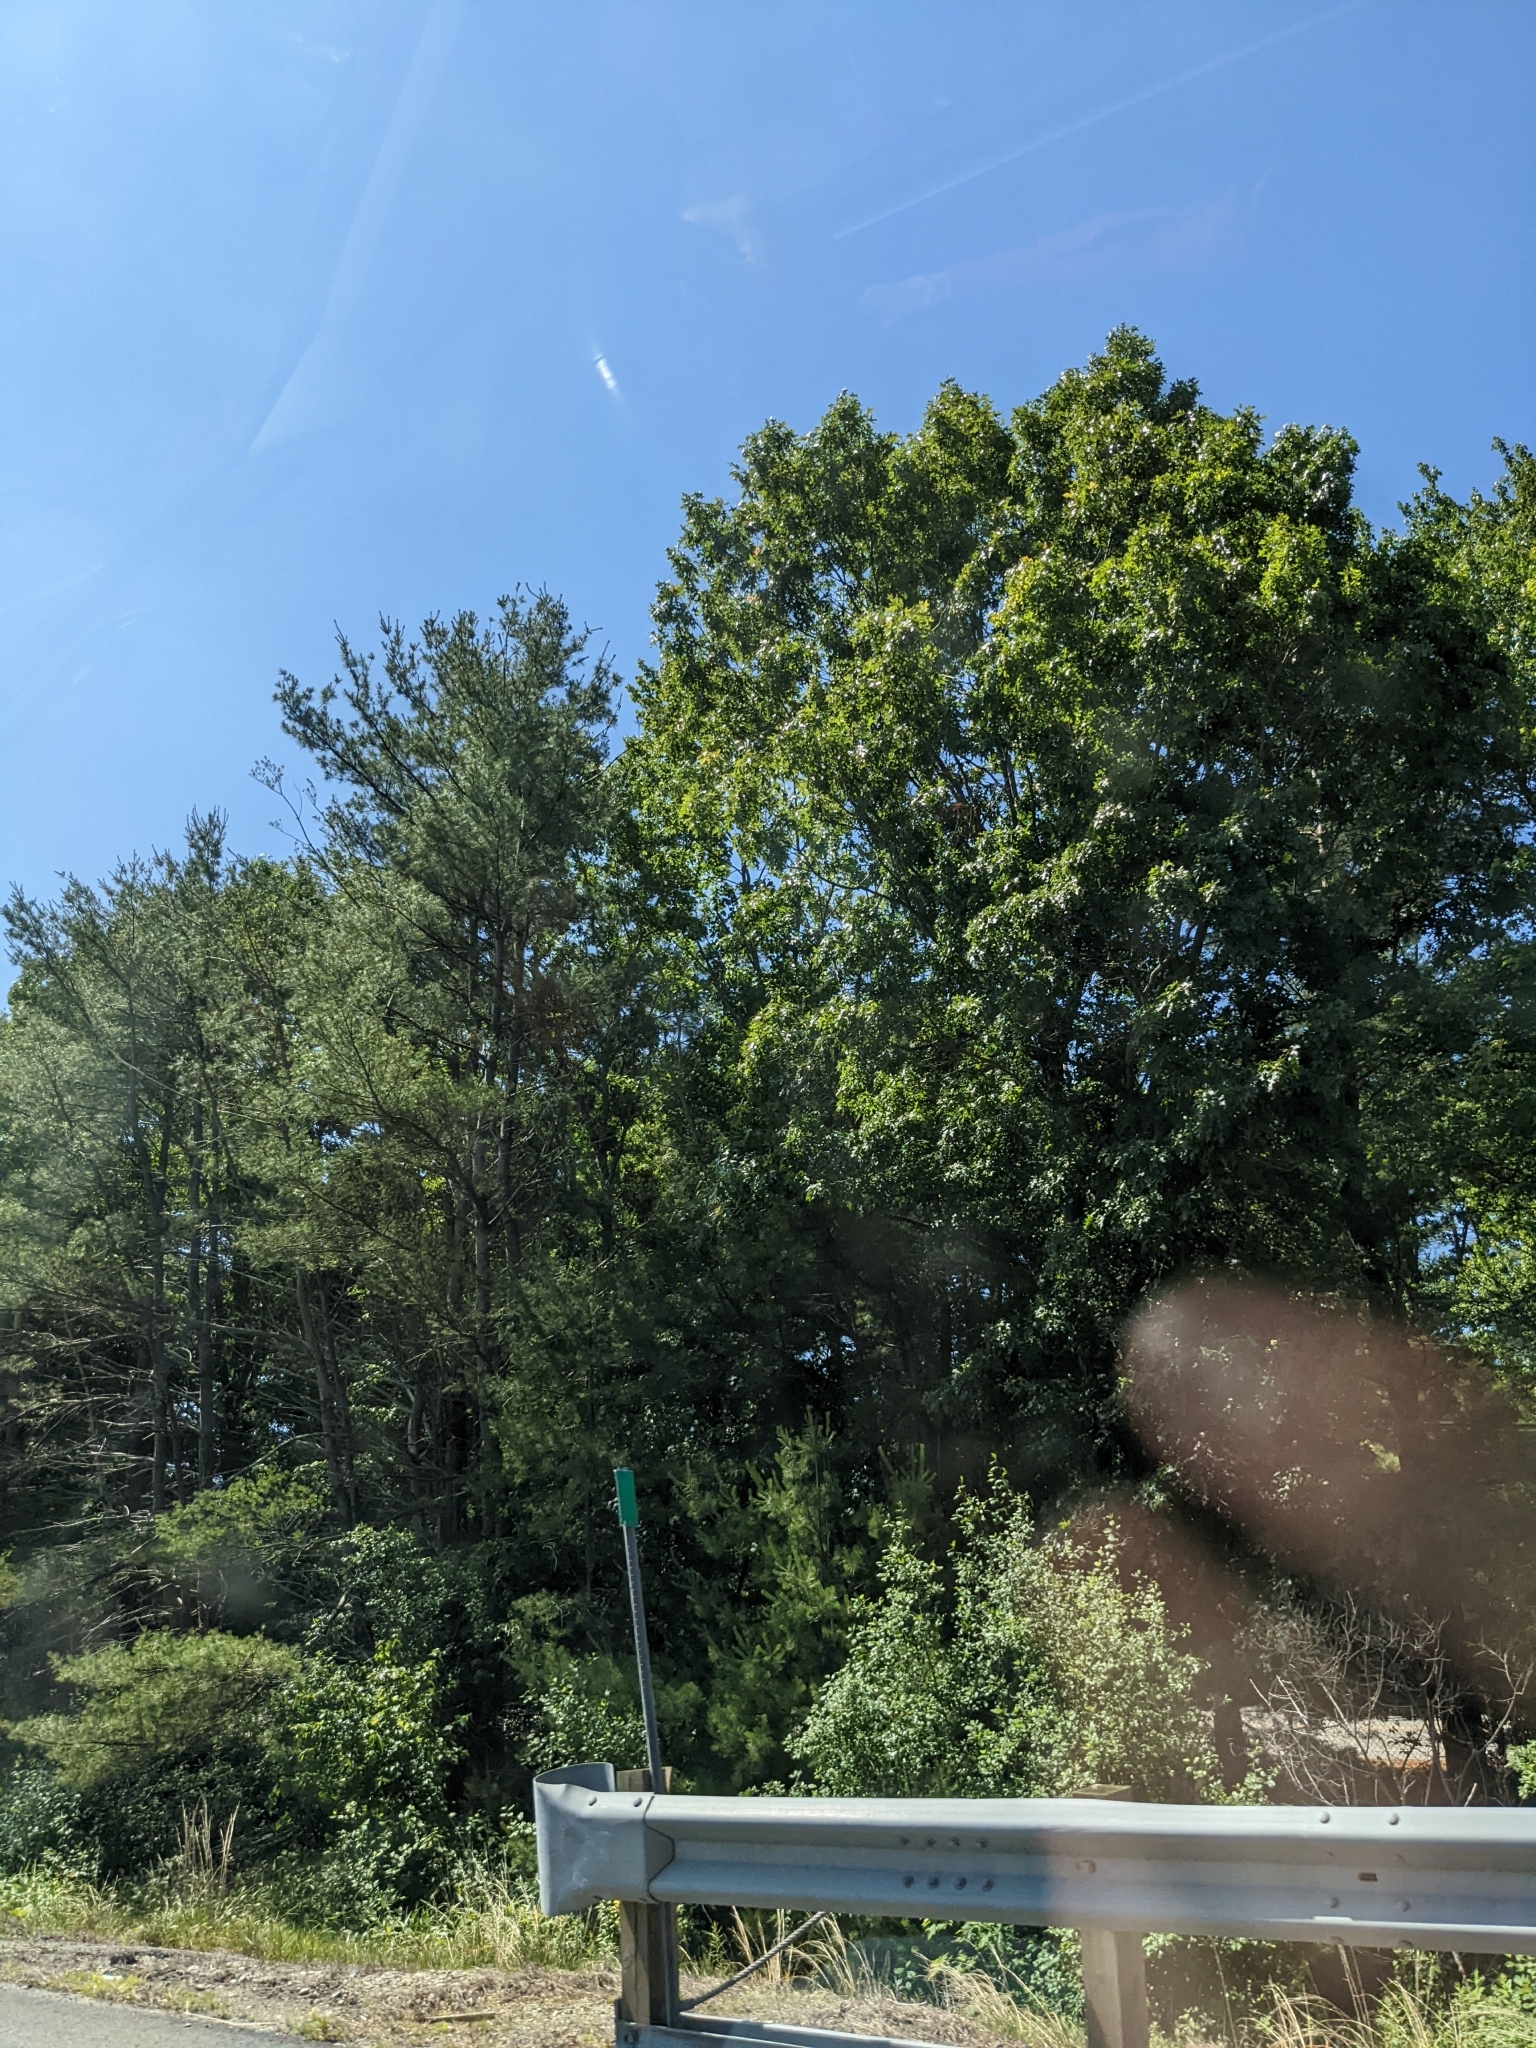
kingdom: Plantae
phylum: Tracheophyta
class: Pinopsida
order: Pinales
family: Pinaceae
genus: Pinus
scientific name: Pinus strobus
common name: Weymouth pine
